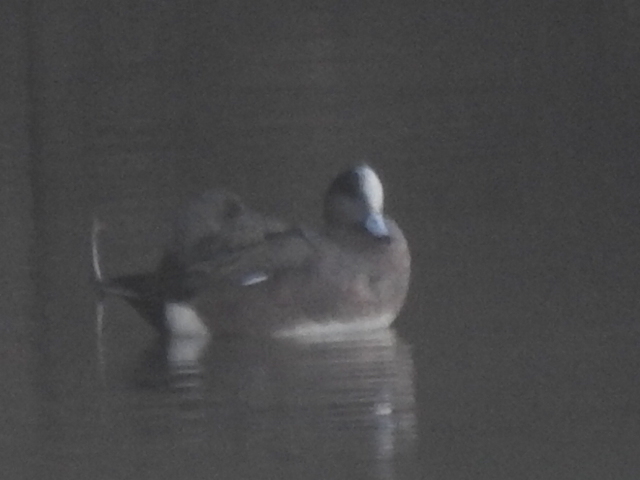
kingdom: Animalia
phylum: Chordata
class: Aves
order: Anseriformes
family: Anatidae
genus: Mareca
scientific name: Mareca americana
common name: American wigeon
